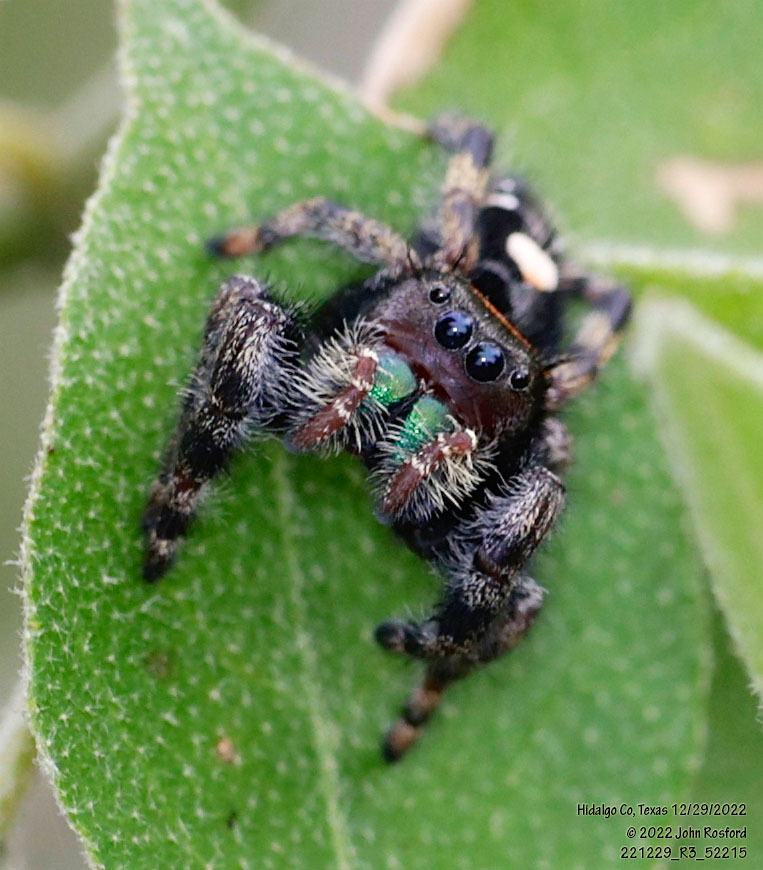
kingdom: Animalia
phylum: Arthropoda
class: Arachnida
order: Araneae
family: Salticidae
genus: Phidippus
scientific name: Phidippus audax
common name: Bold jumper
